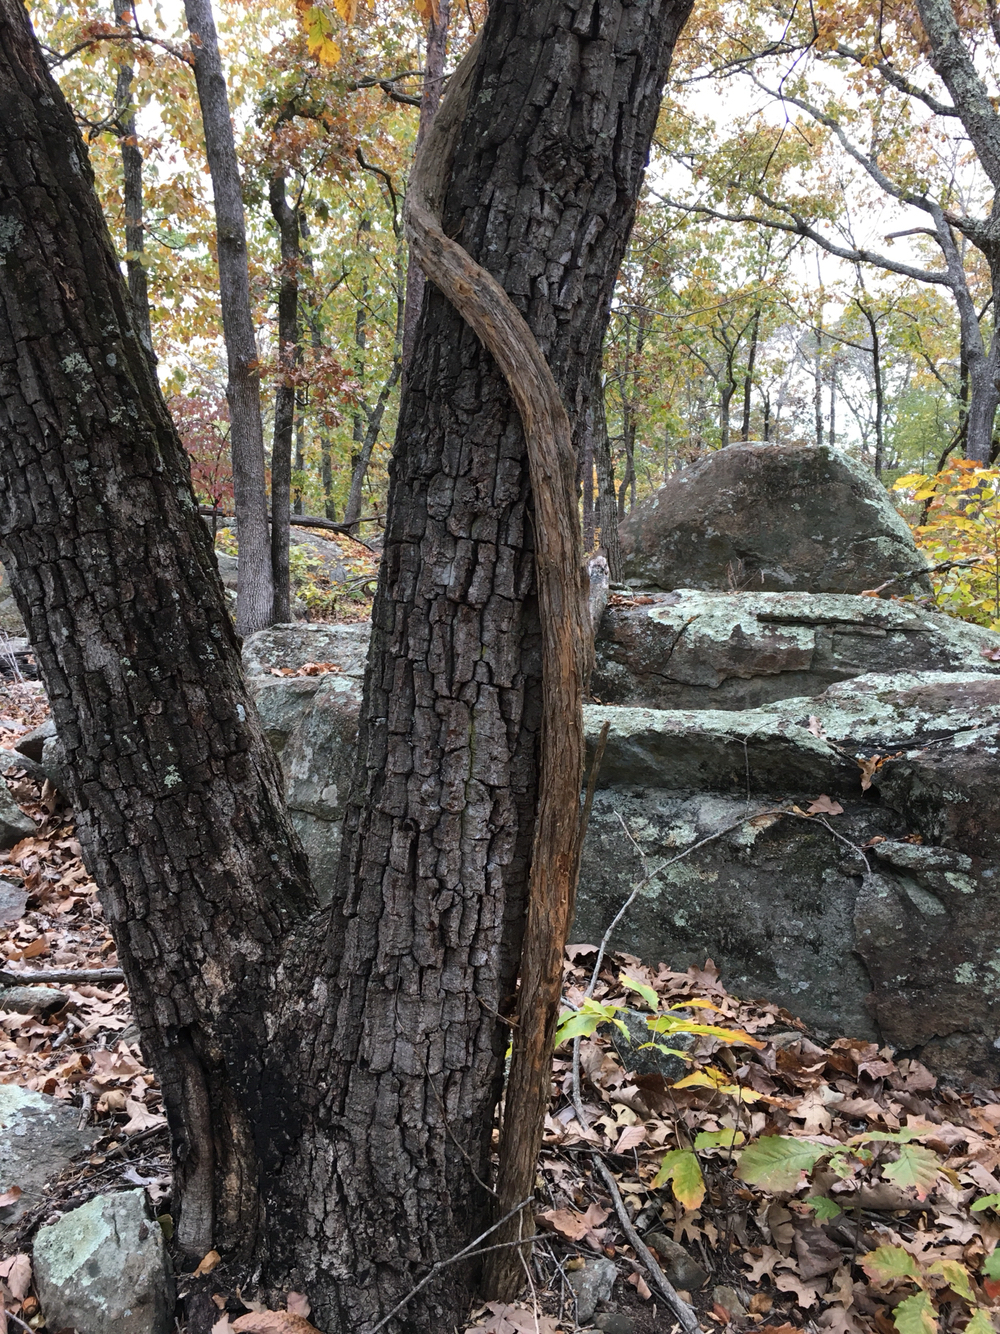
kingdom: Plantae
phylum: Tracheophyta
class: Magnoliopsida
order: Lamiales
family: Bignoniaceae
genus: Campsis
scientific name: Campsis radicans
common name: Trumpet-creeper
